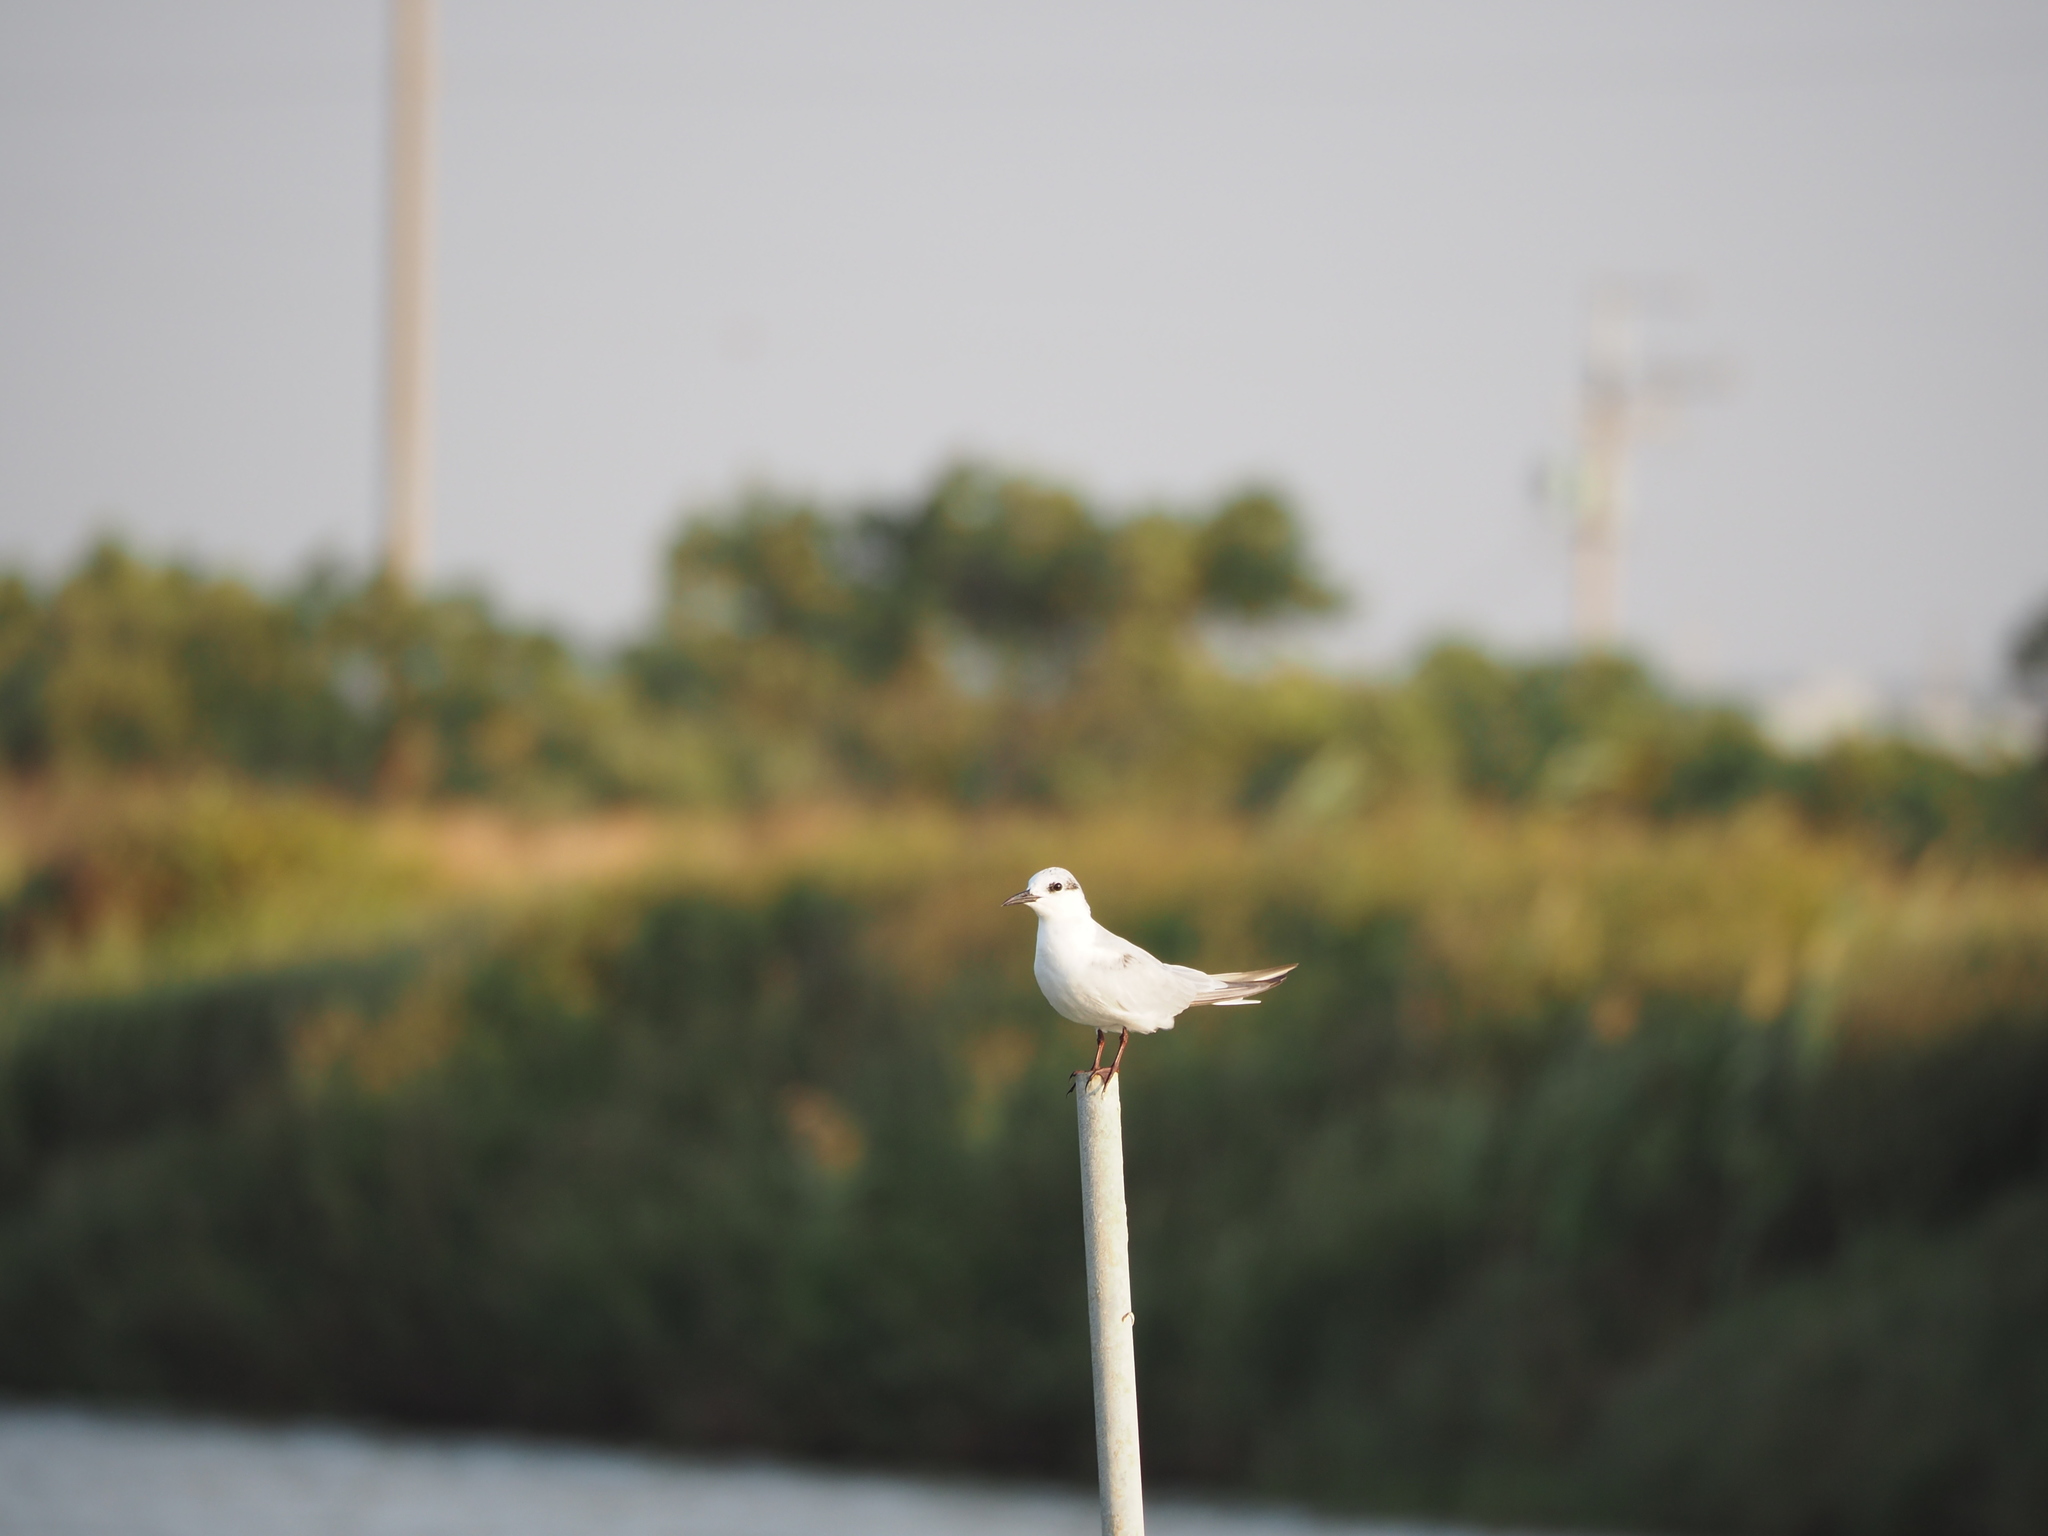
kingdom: Animalia
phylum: Chordata
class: Aves
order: Charadriiformes
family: Laridae
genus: Chlidonias
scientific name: Chlidonias hybrida
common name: Whiskered tern
